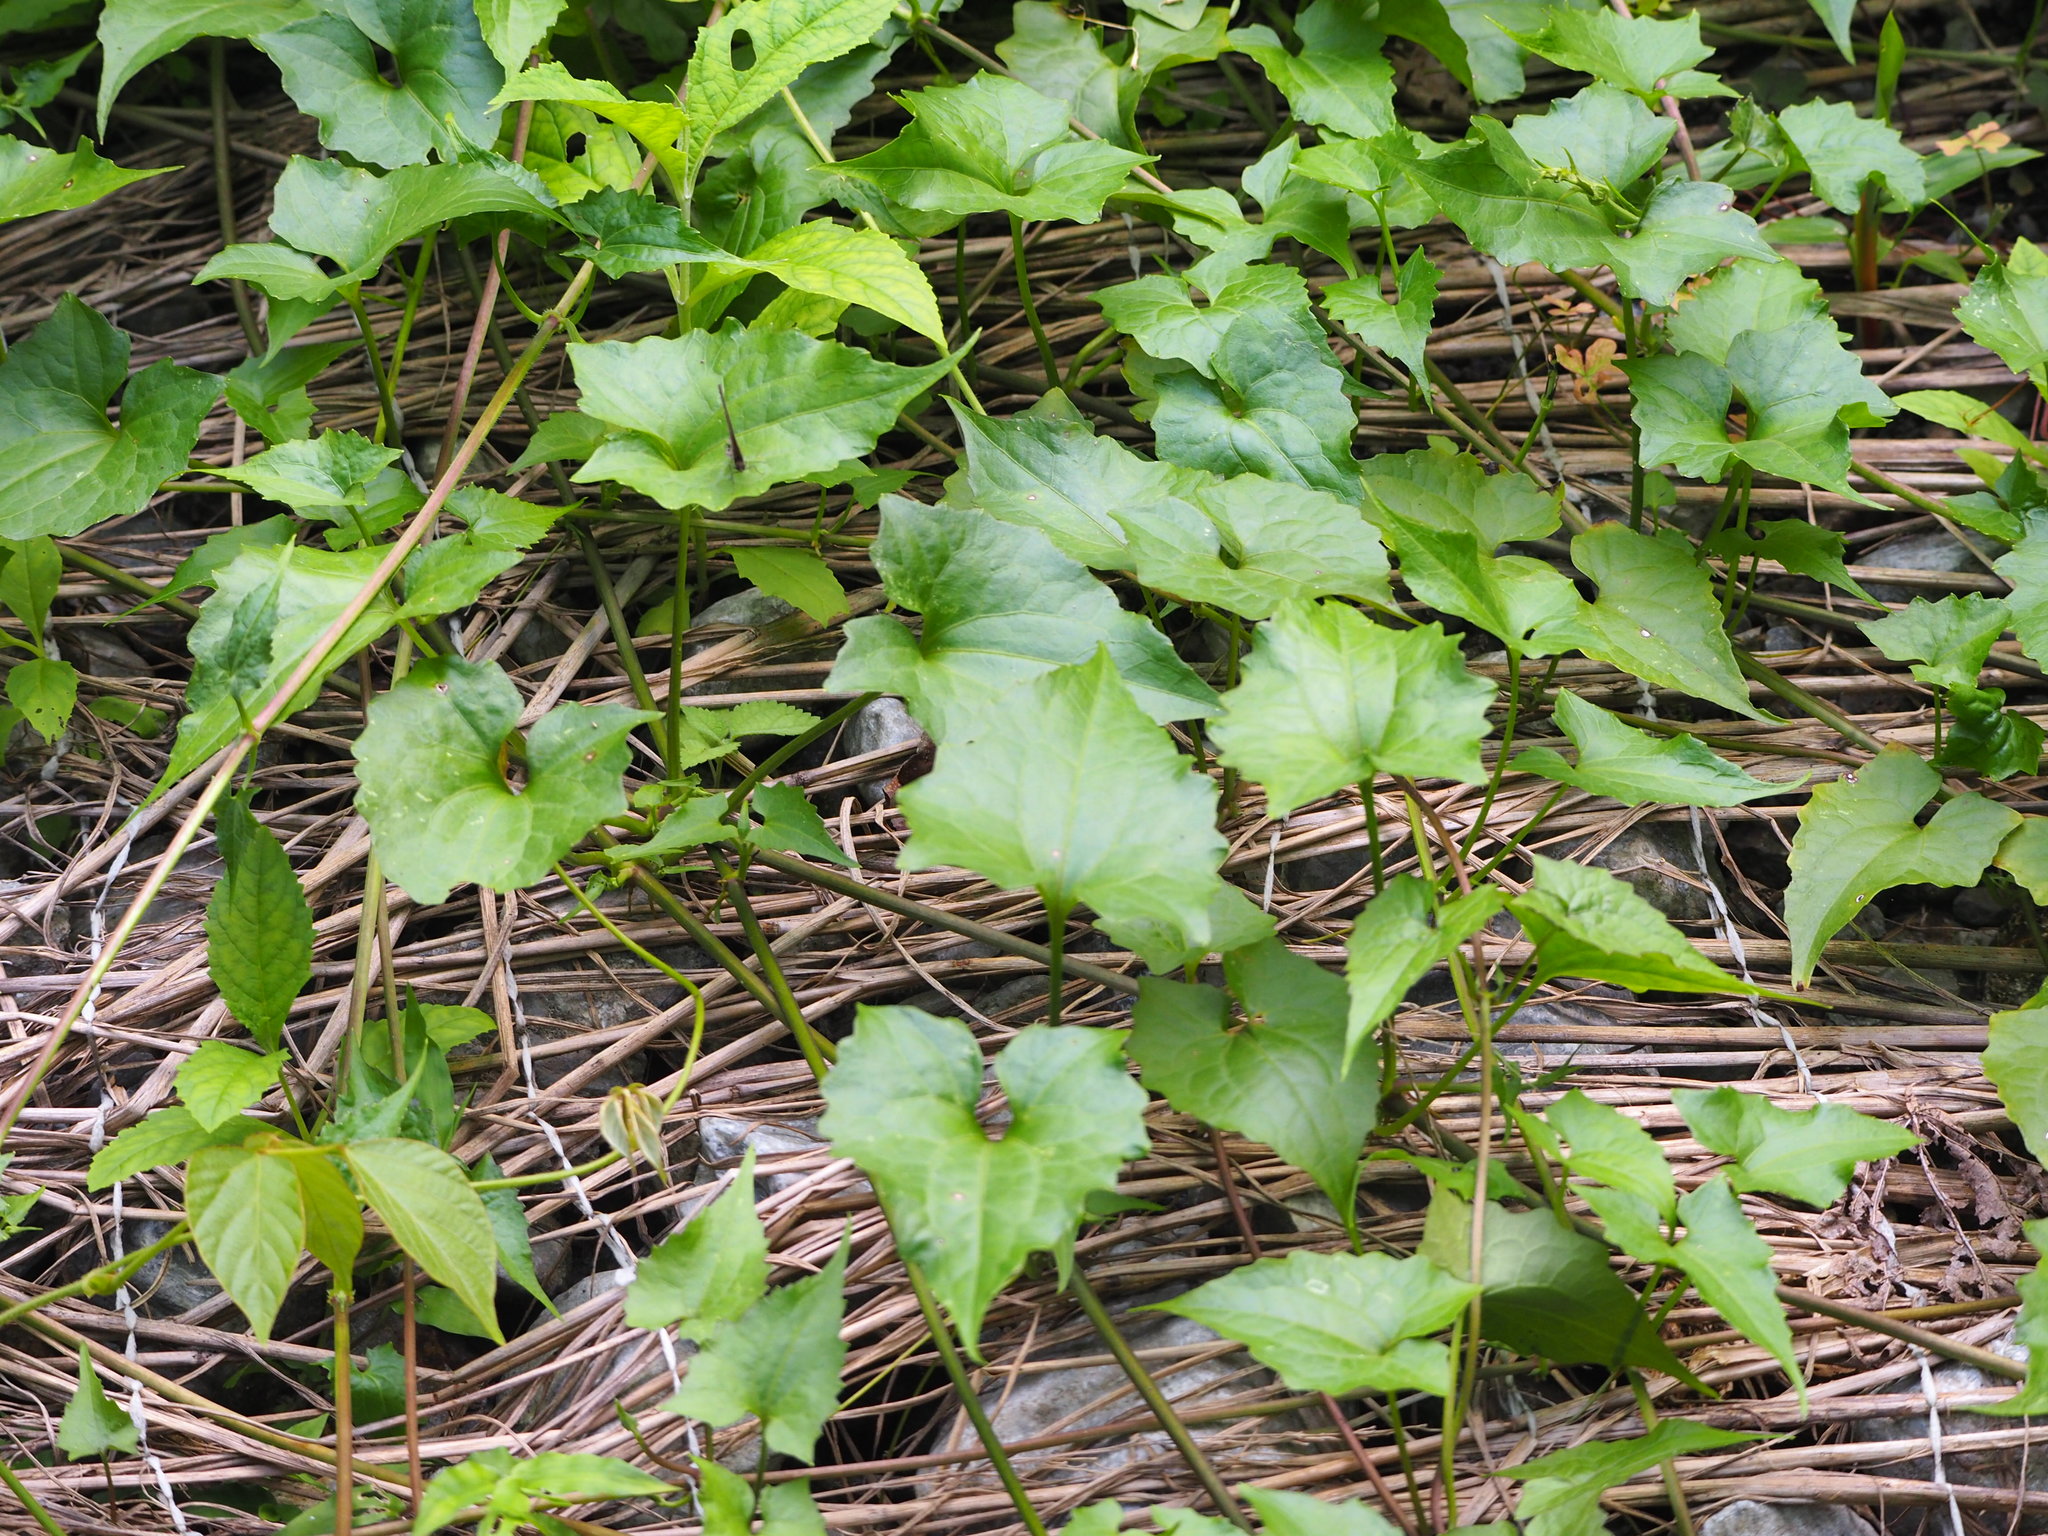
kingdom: Plantae
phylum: Tracheophyta
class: Magnoliopsida
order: Asterales
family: Asteraceae
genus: Mikania
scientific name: Mikania micrantha
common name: Mile-a-minute
